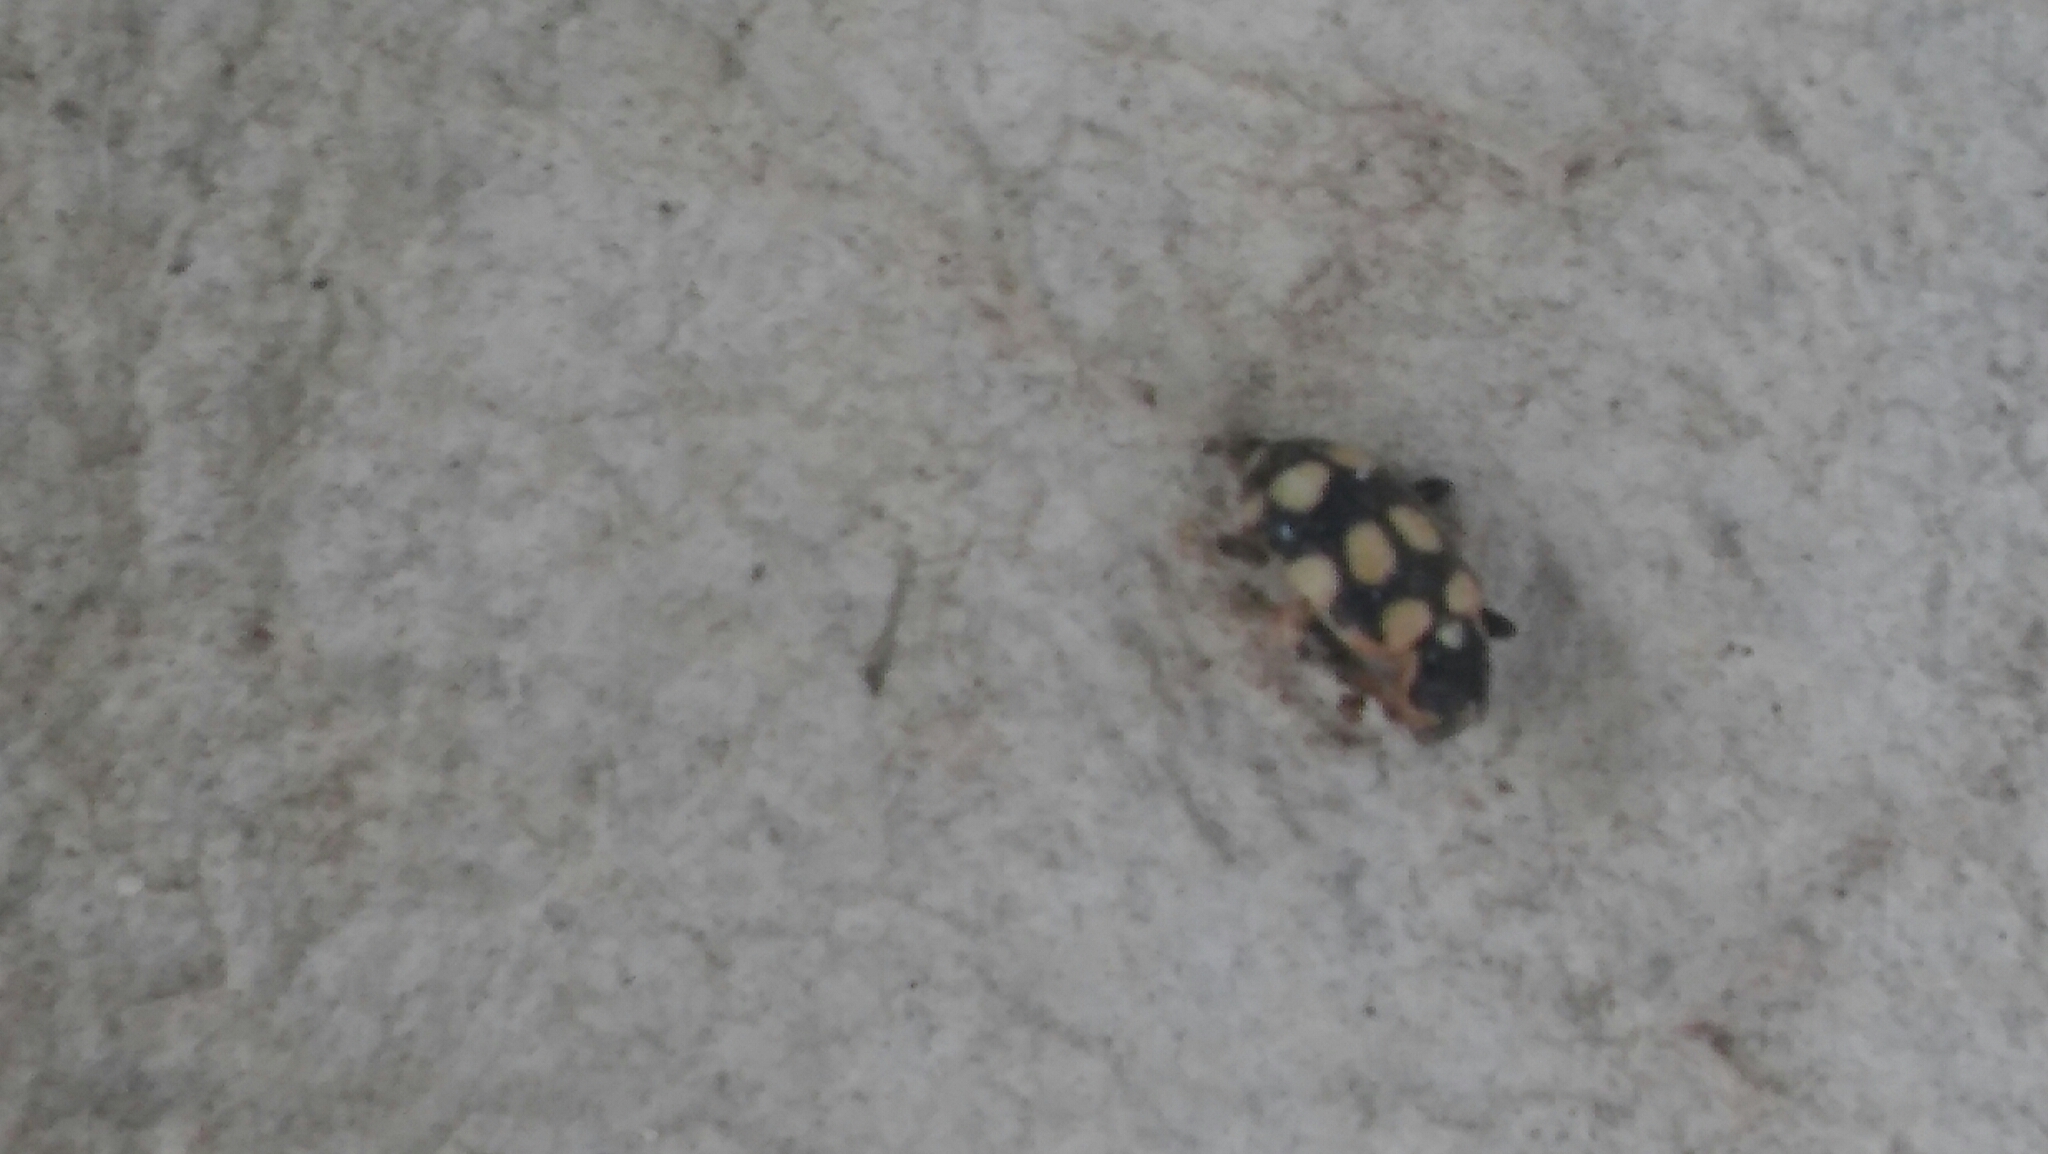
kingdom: Animalia
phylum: Arthropoda
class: Insecta
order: Coleoptera
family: Coccinellidae
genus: Eriopis
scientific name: Eriopis connexa
